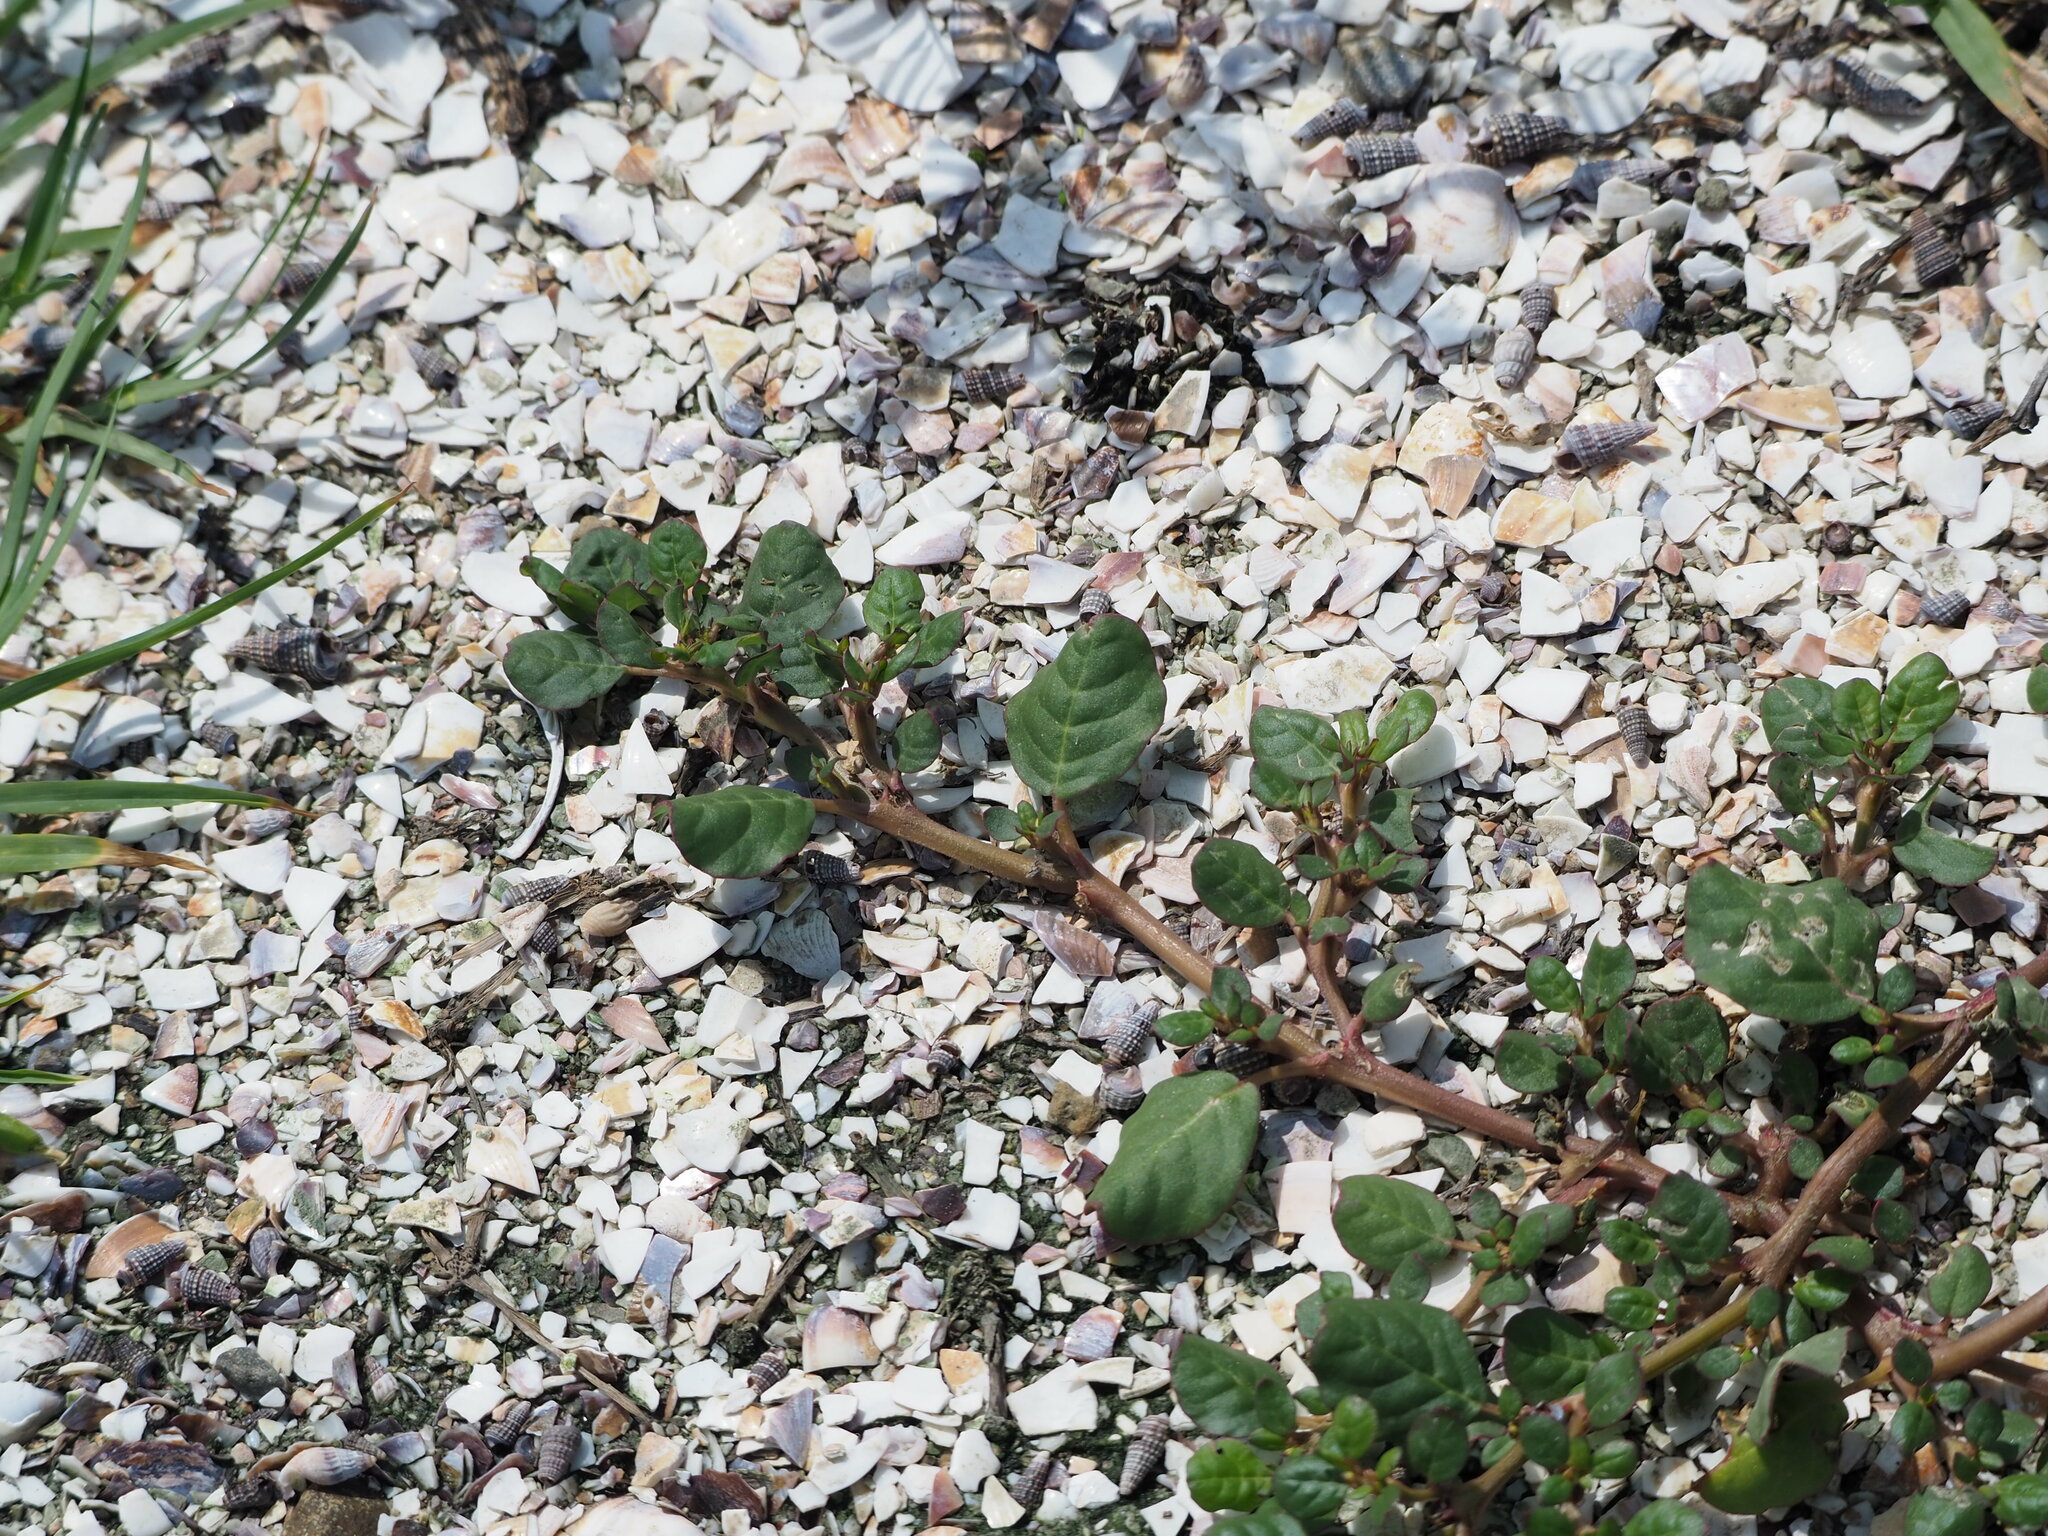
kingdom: Plantae
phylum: Tracheophyta
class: Magnoliopsida
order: Caryophyllales
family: Aizoaceae
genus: Trianthema
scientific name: Trianthema portulacastrum
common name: Desert horsepurslane
